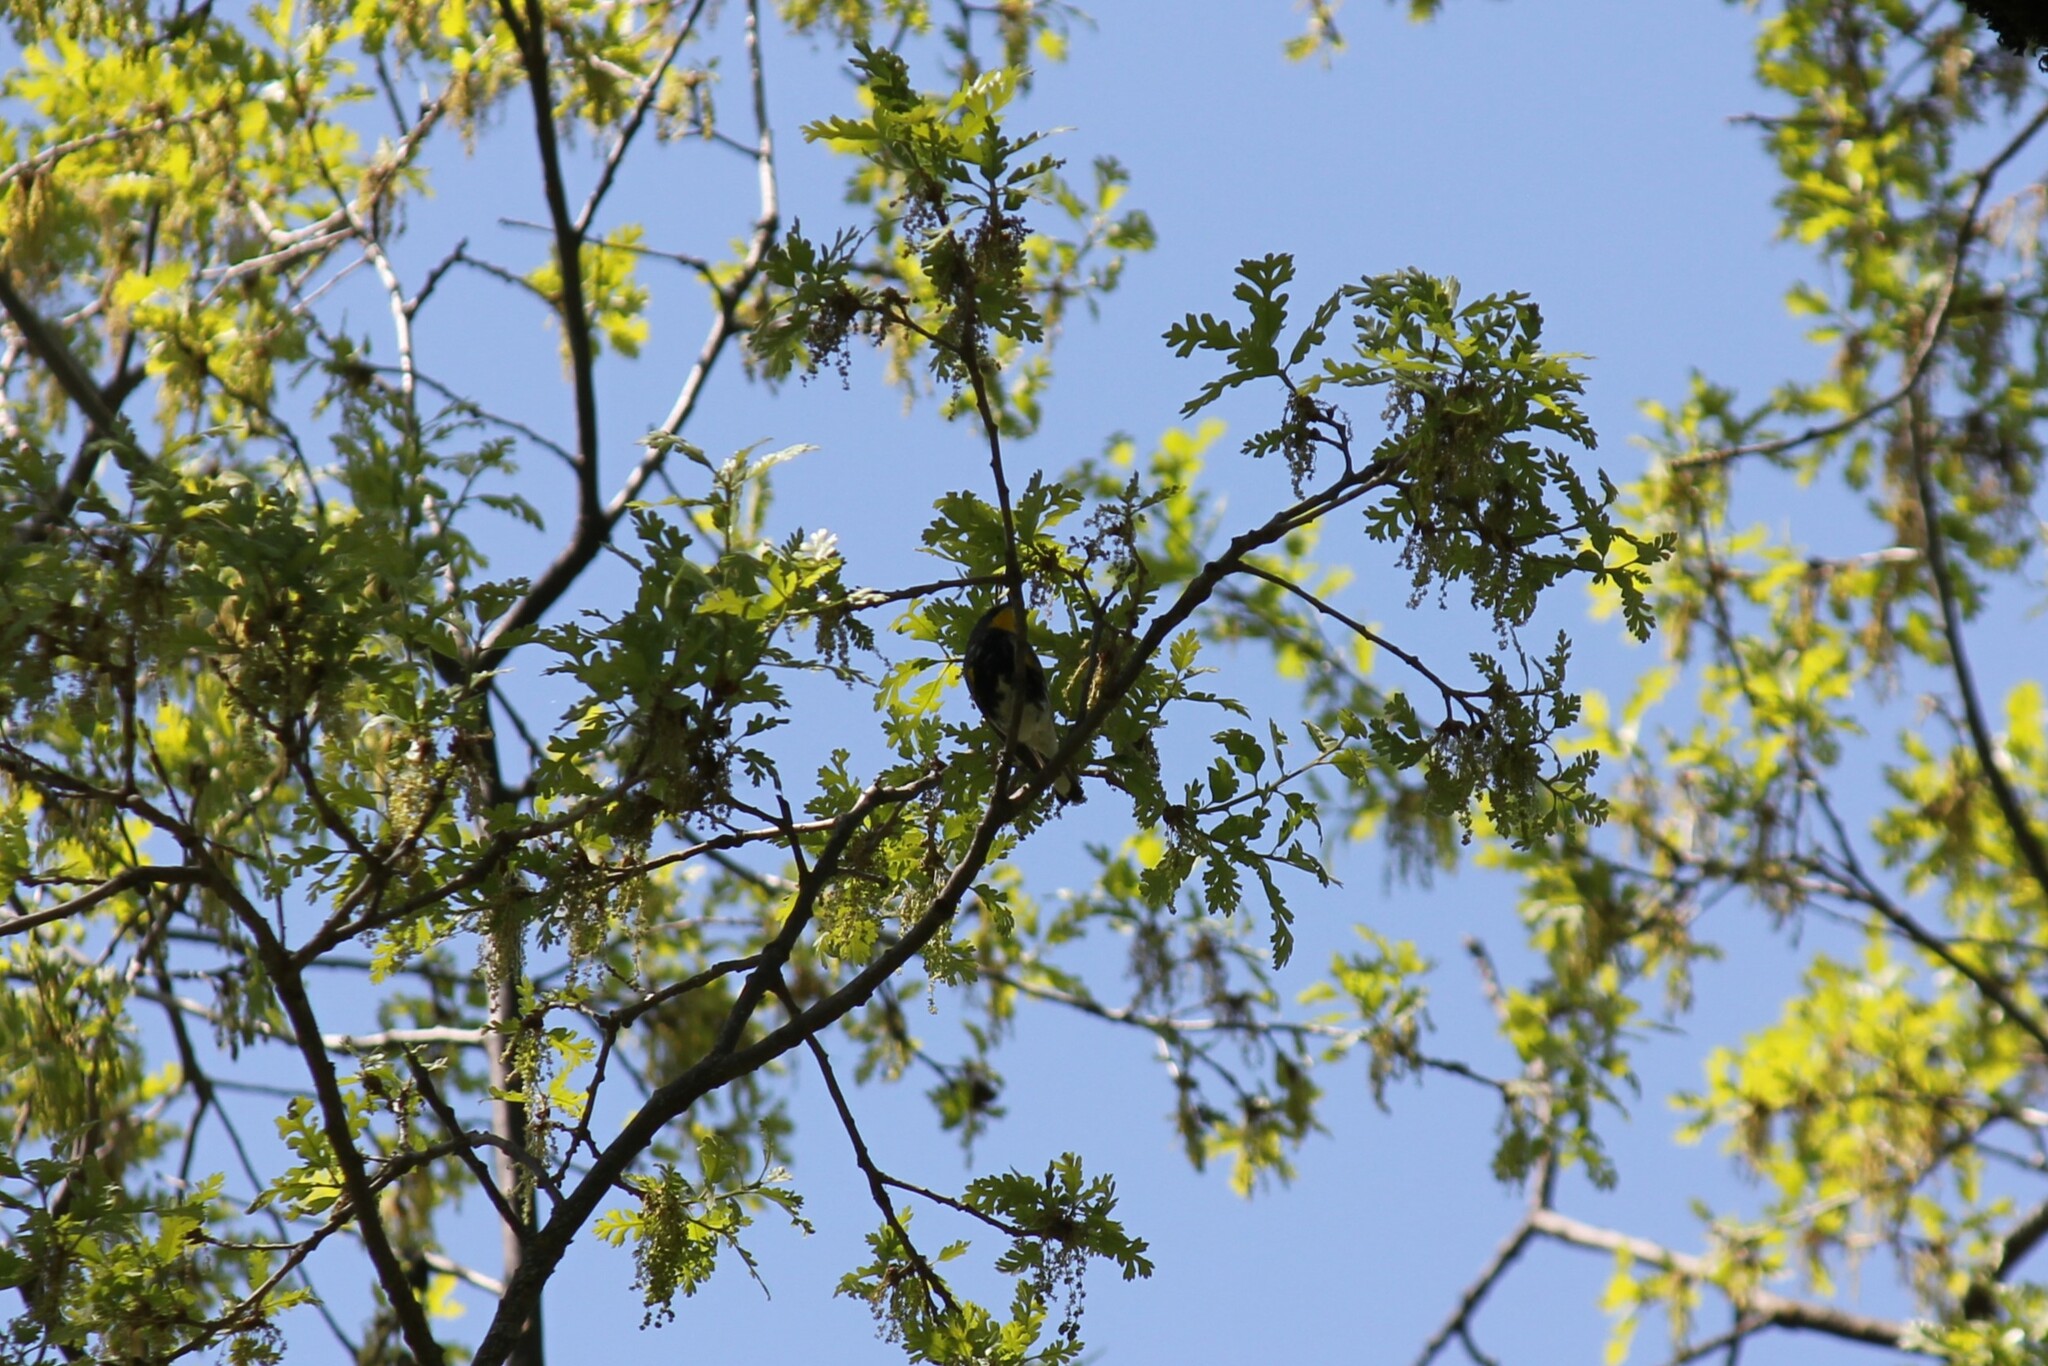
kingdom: Animalia
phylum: Chordata
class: Aves
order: Passeriformes
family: Parulidae
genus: Setophaga
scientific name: Setophaga coronata
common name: Myrtle warbler
